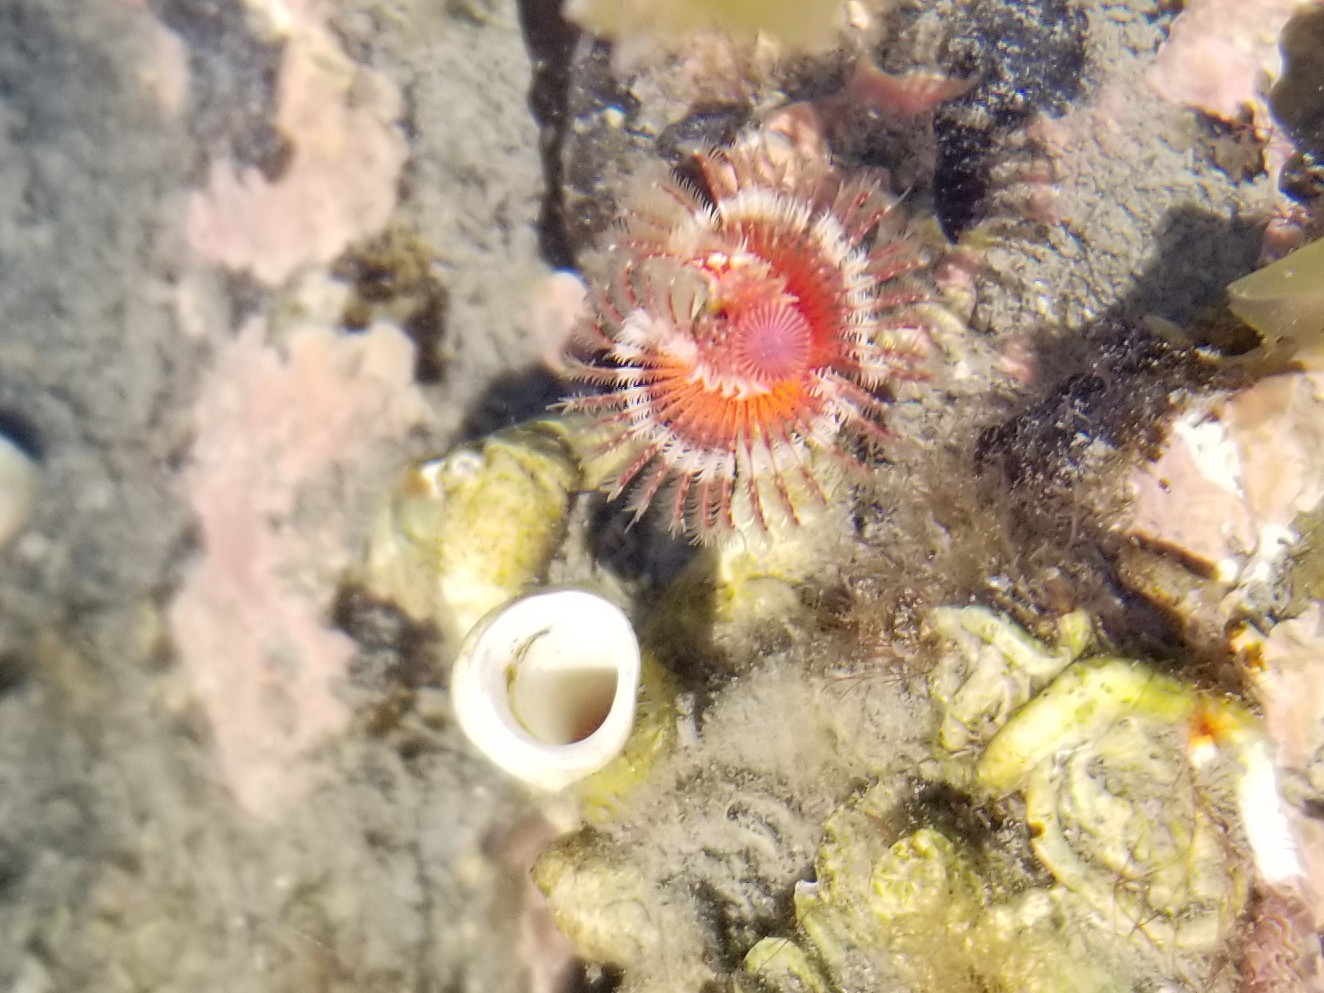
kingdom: Animalia
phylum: Annelida
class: Polychaeta
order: Sabellida
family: Serpulidae
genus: Serpula
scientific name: Serpula columbiana
